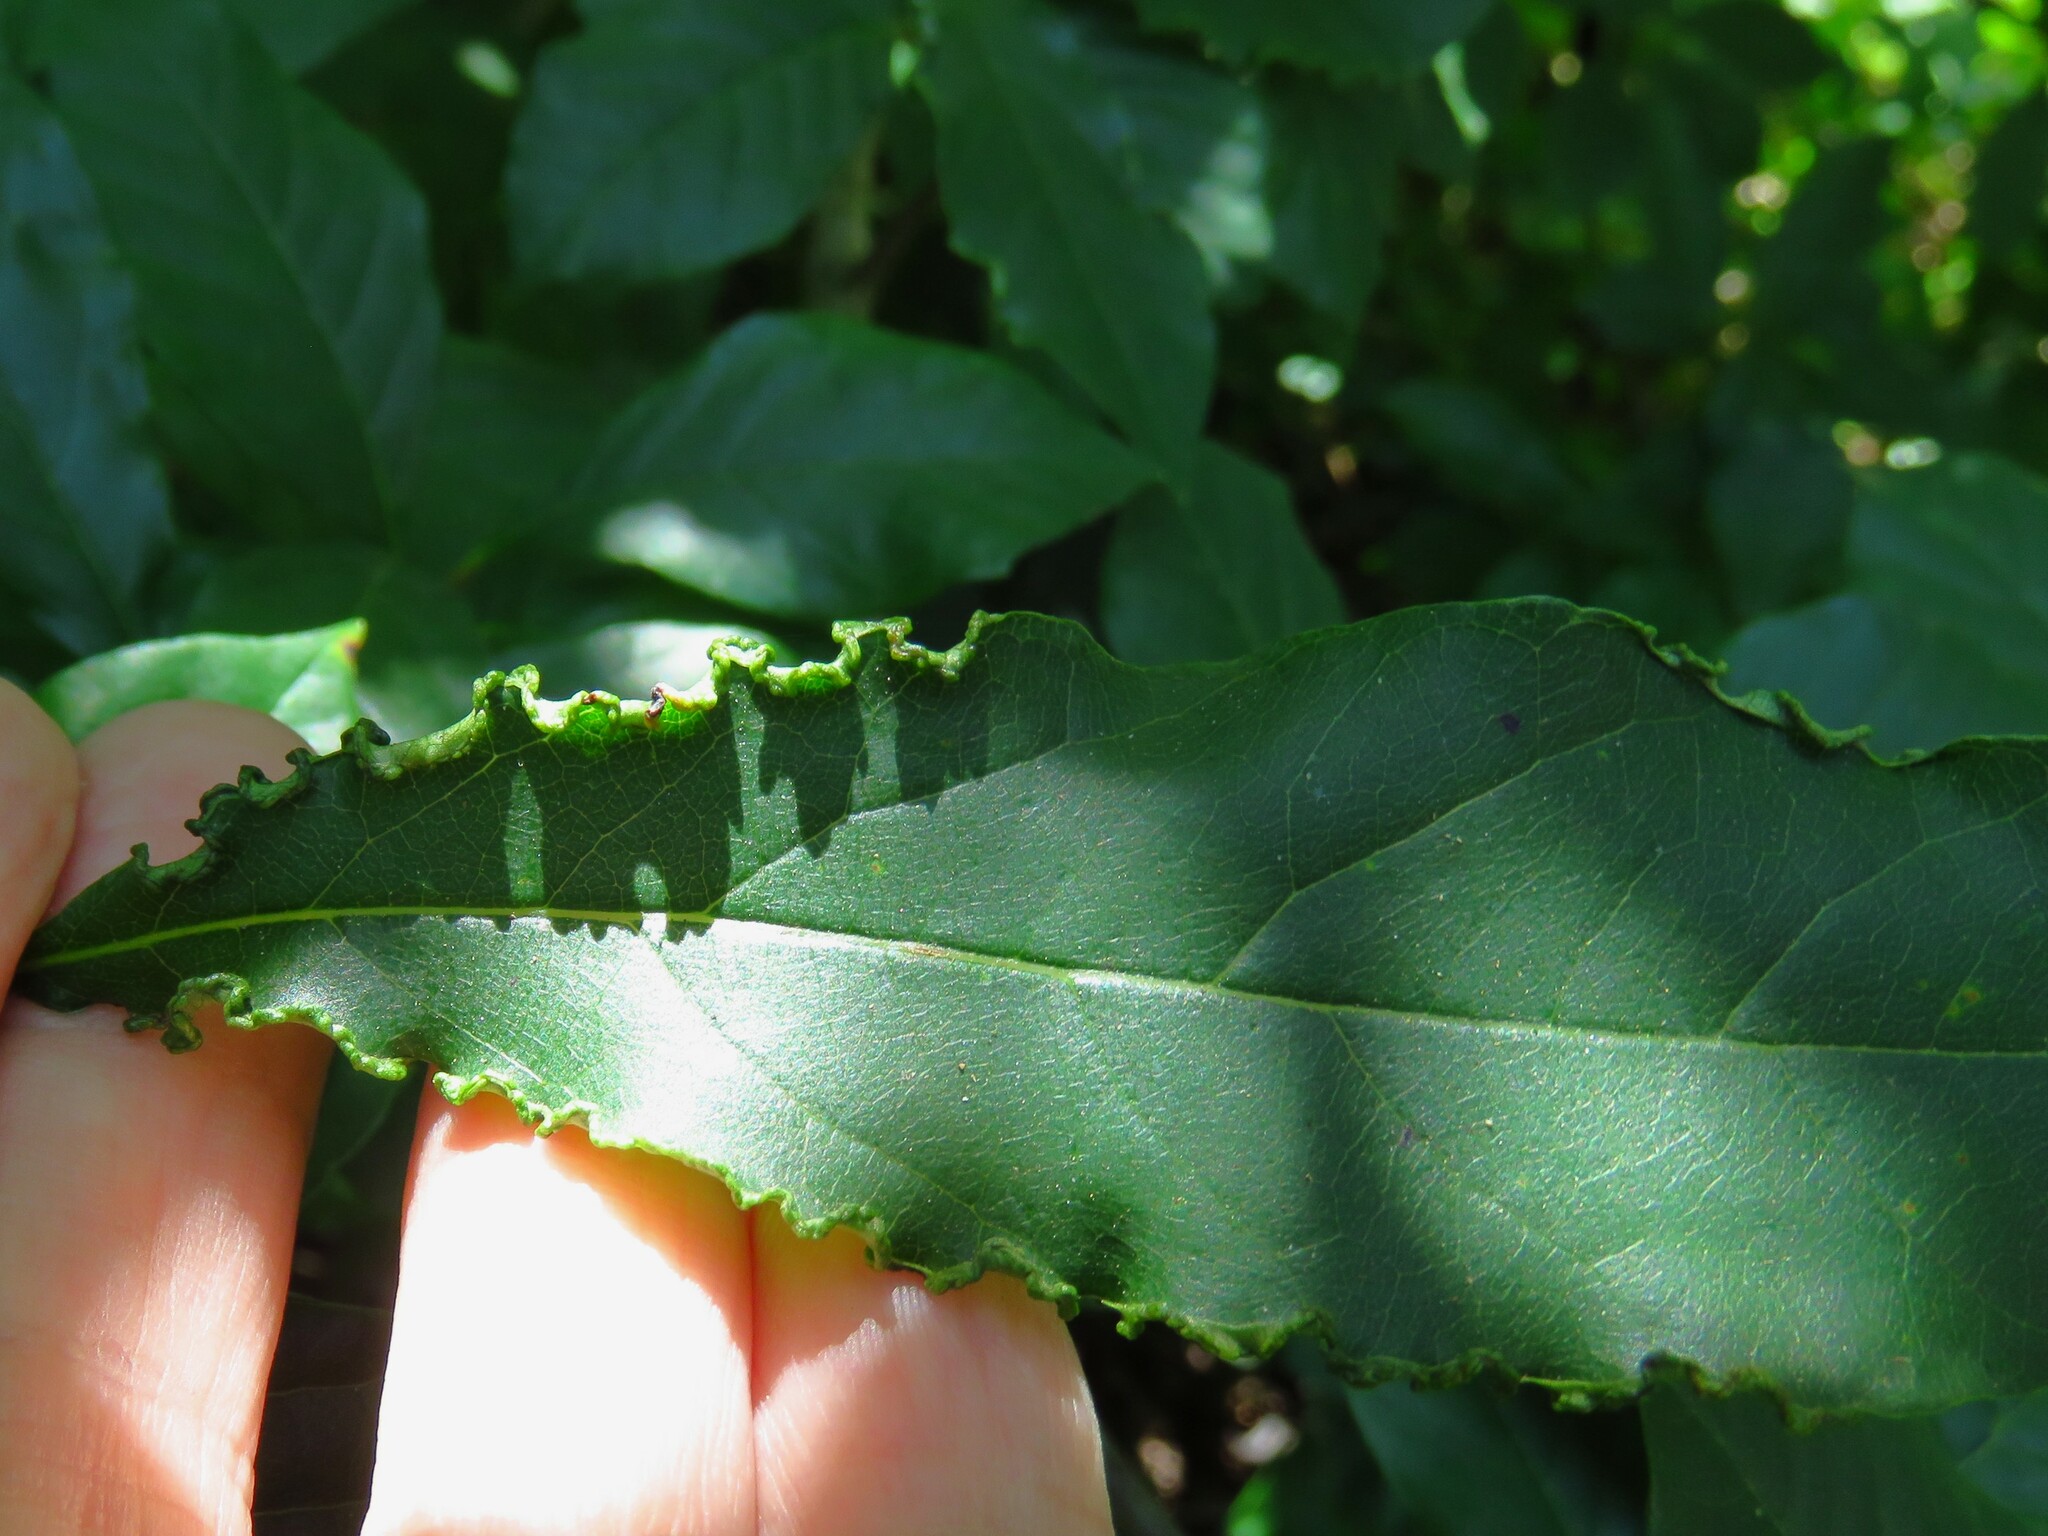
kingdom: Animalia
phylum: Arthropoda
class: Arachnida
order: Trombidiformes
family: Eriophyidae
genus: Aceria
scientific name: Aceria
